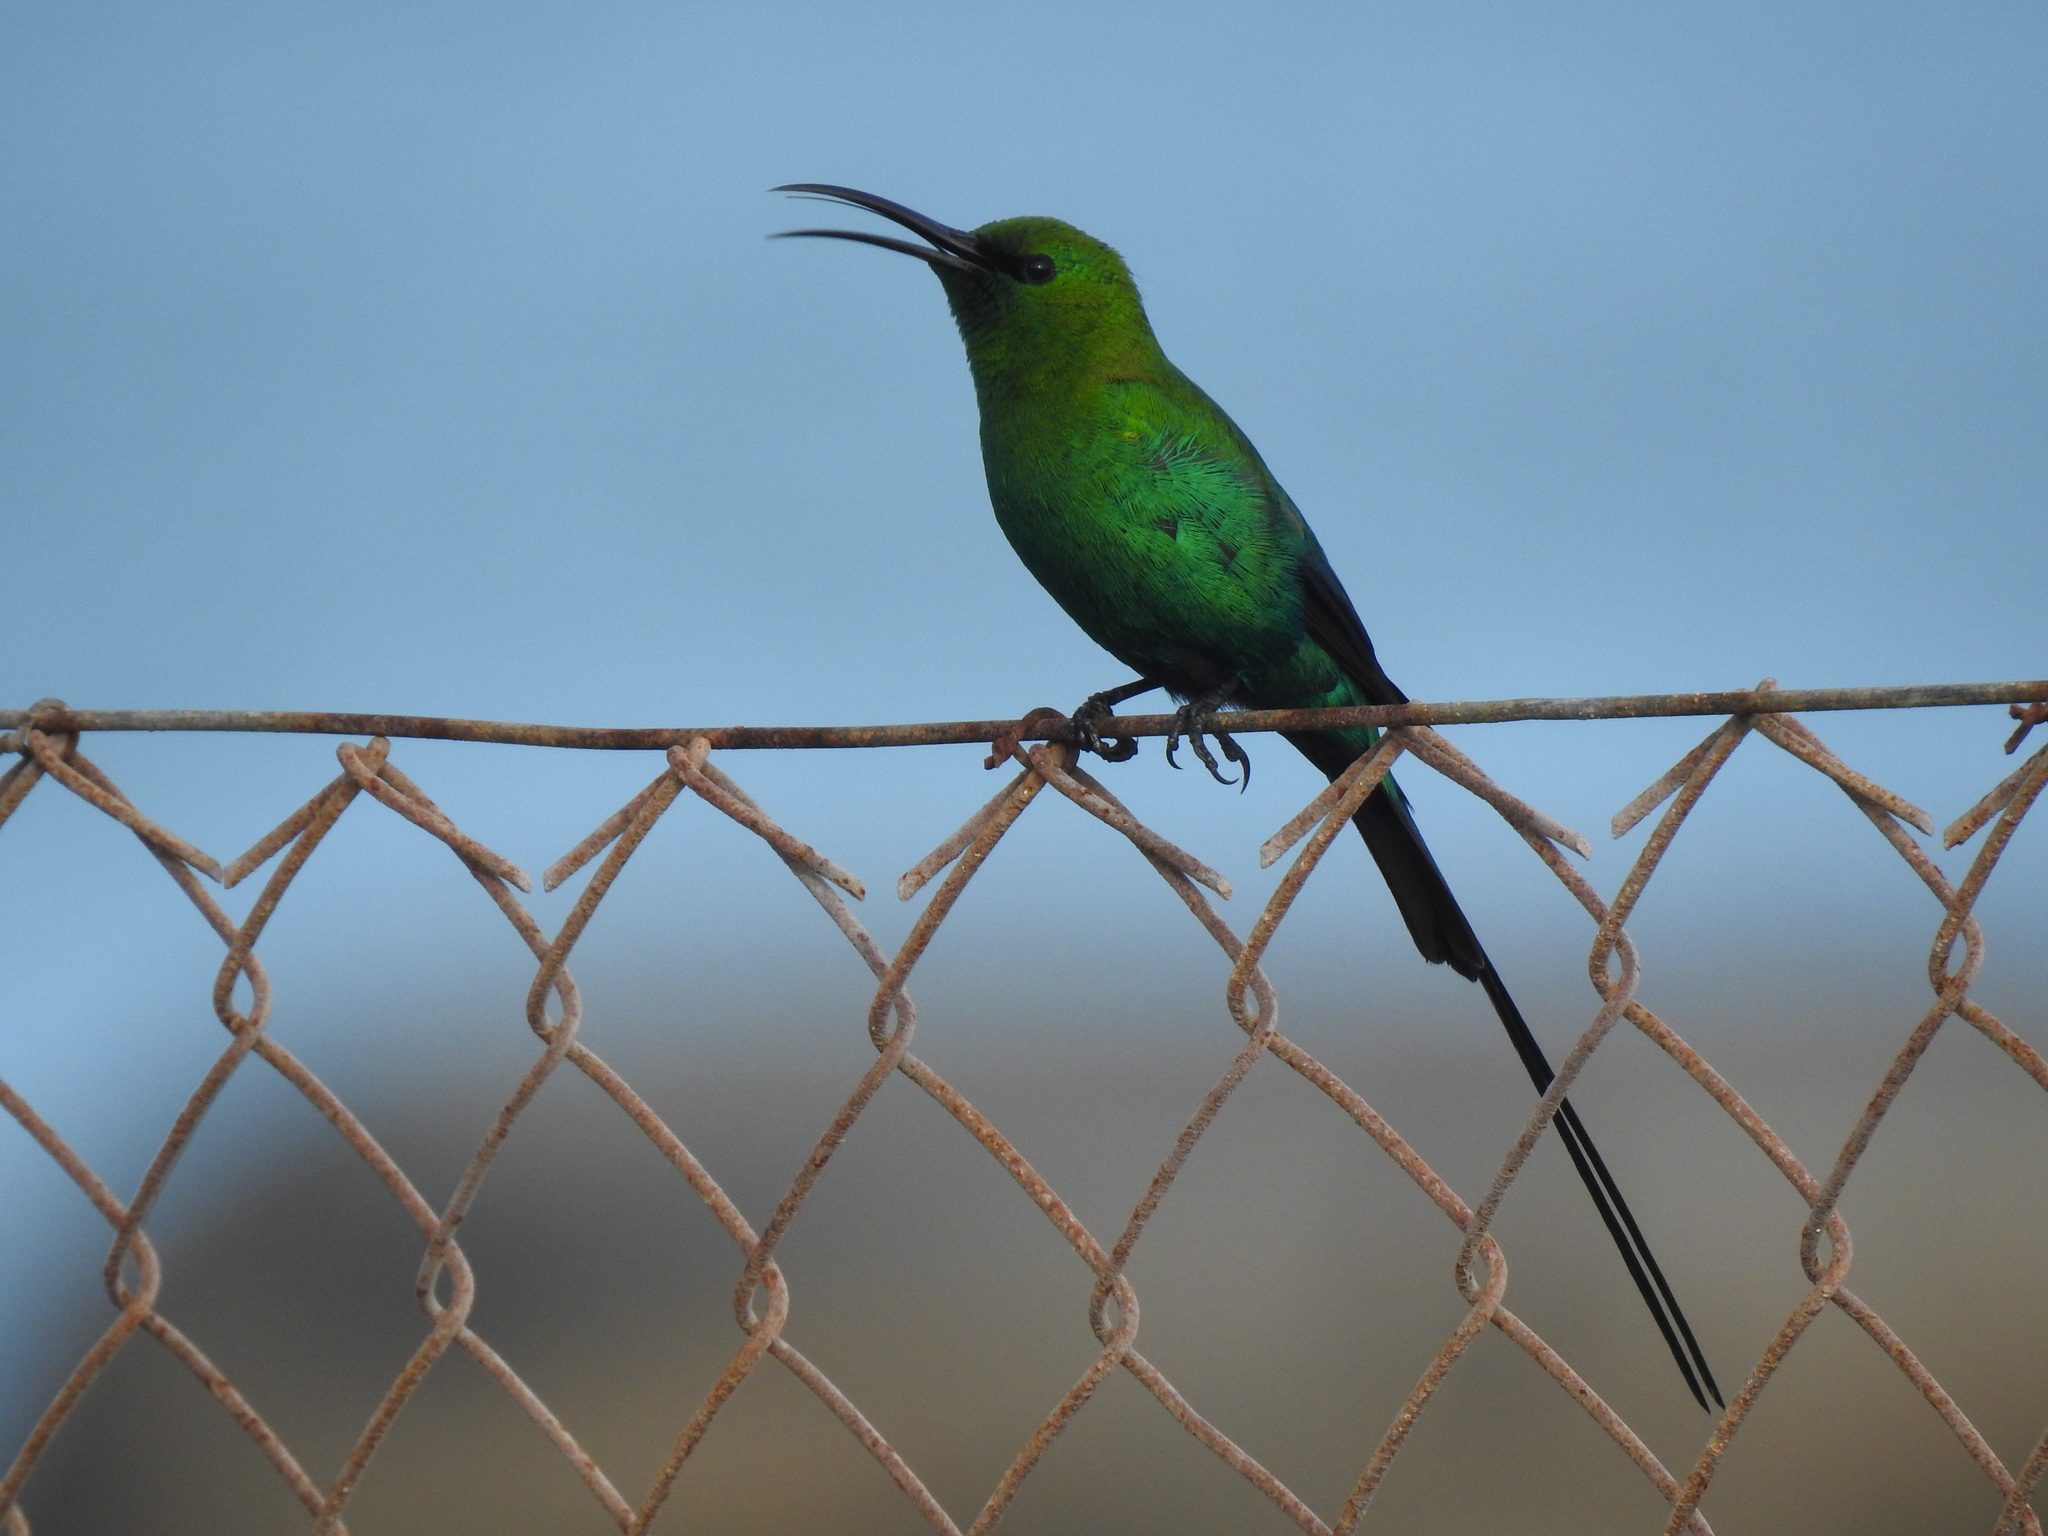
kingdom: Animalia
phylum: Chordata
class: Aves
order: Passeriformes
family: Nectariniidae
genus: Nectarinia
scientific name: Nectarinia famosa
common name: Malachite sunbird
